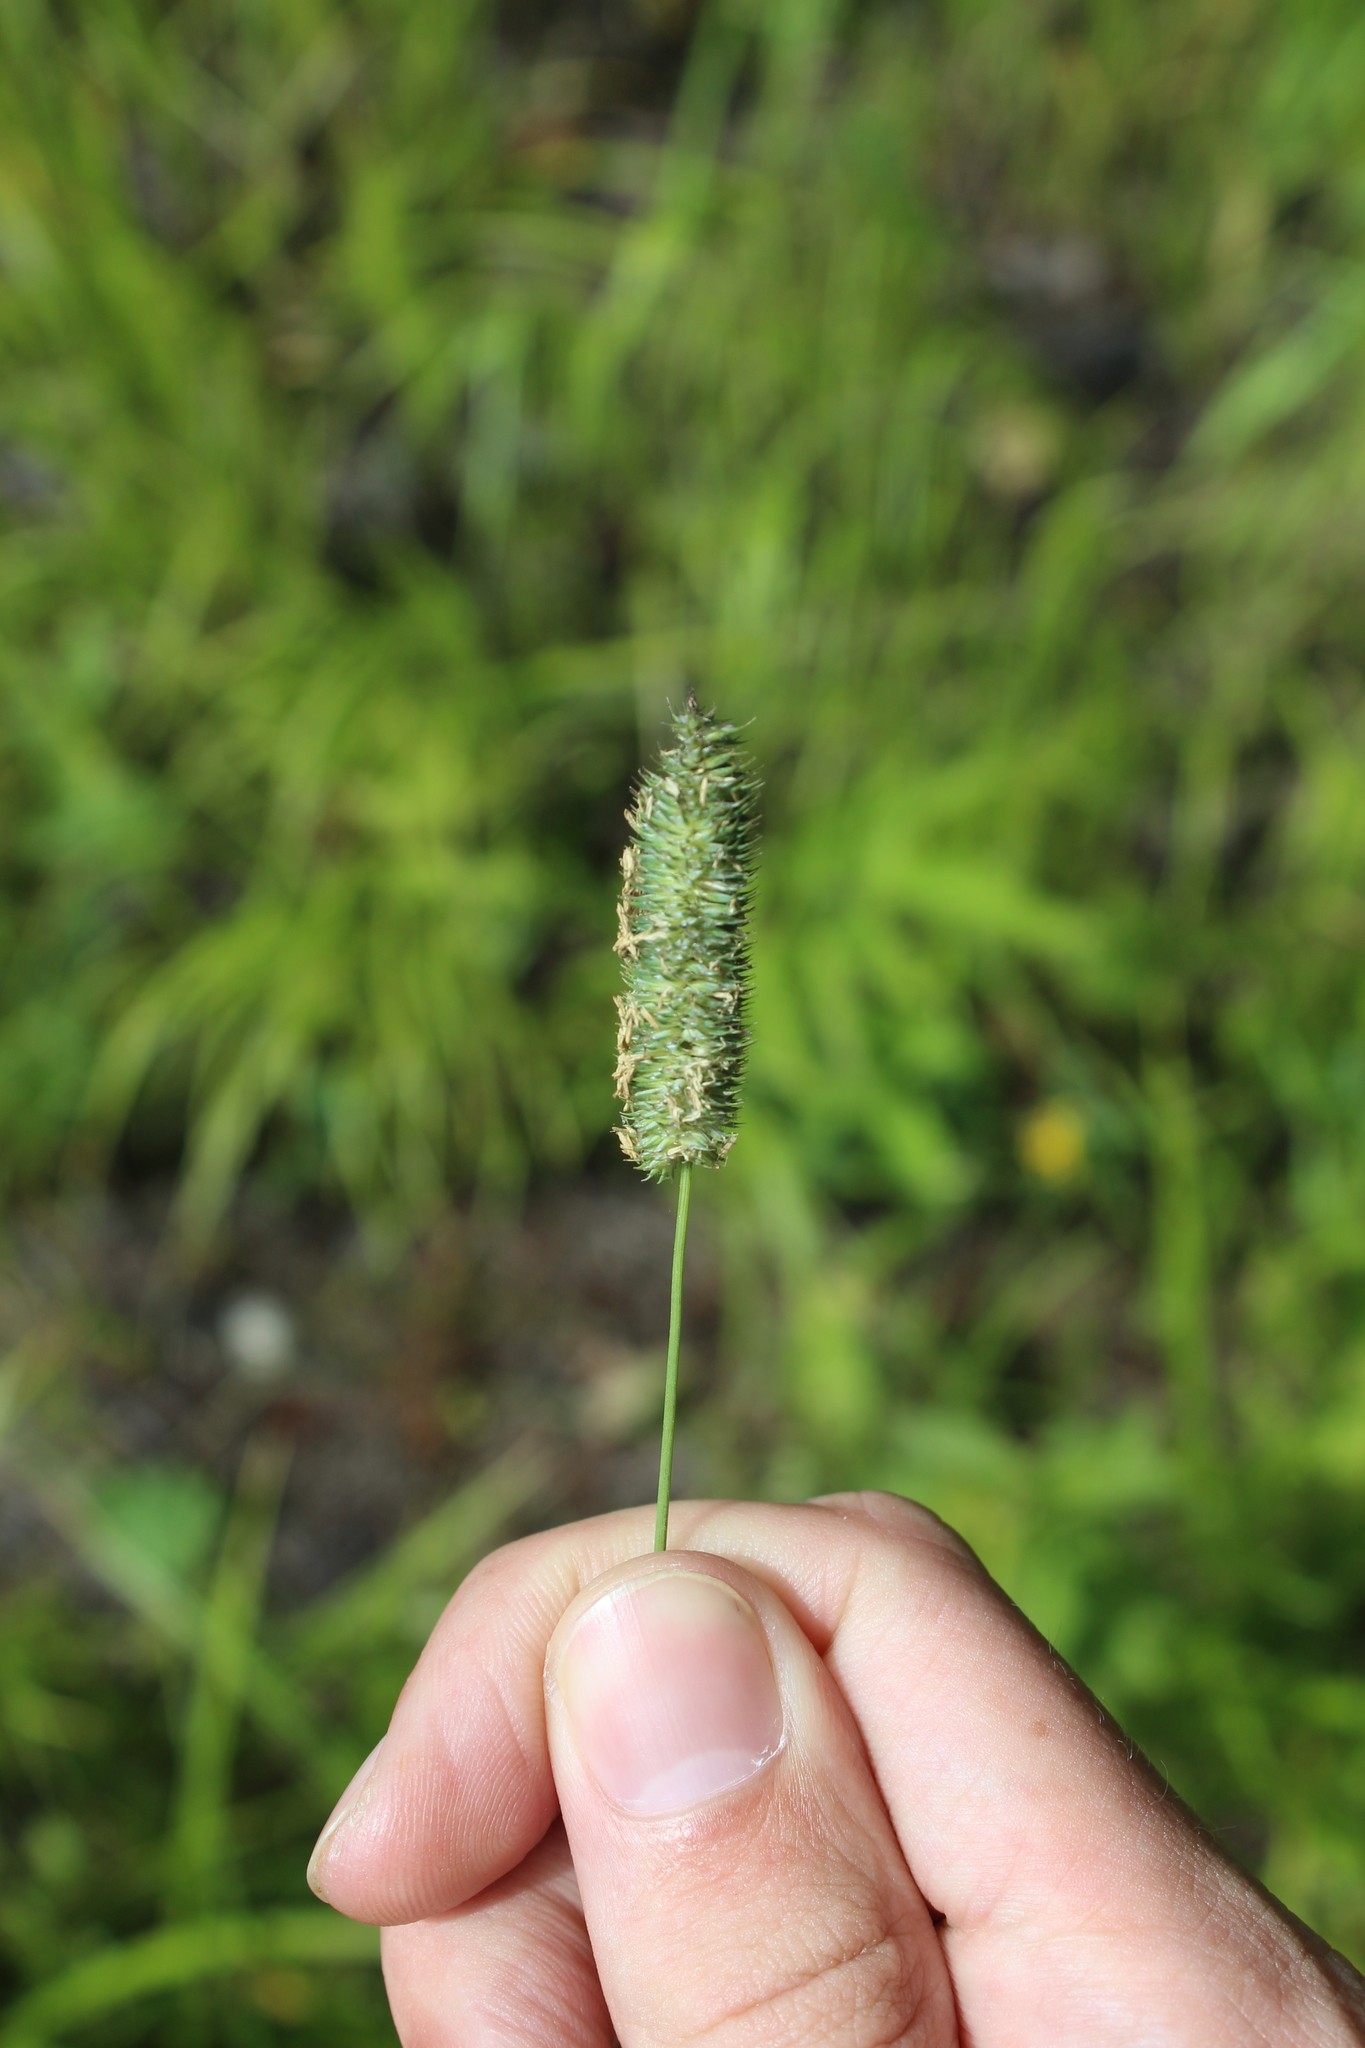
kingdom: Plantae
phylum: Tracheophyta
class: Liliopsida
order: Poales
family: Poaceae
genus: Phleum
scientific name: Phleum pratense
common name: Timothy grass
